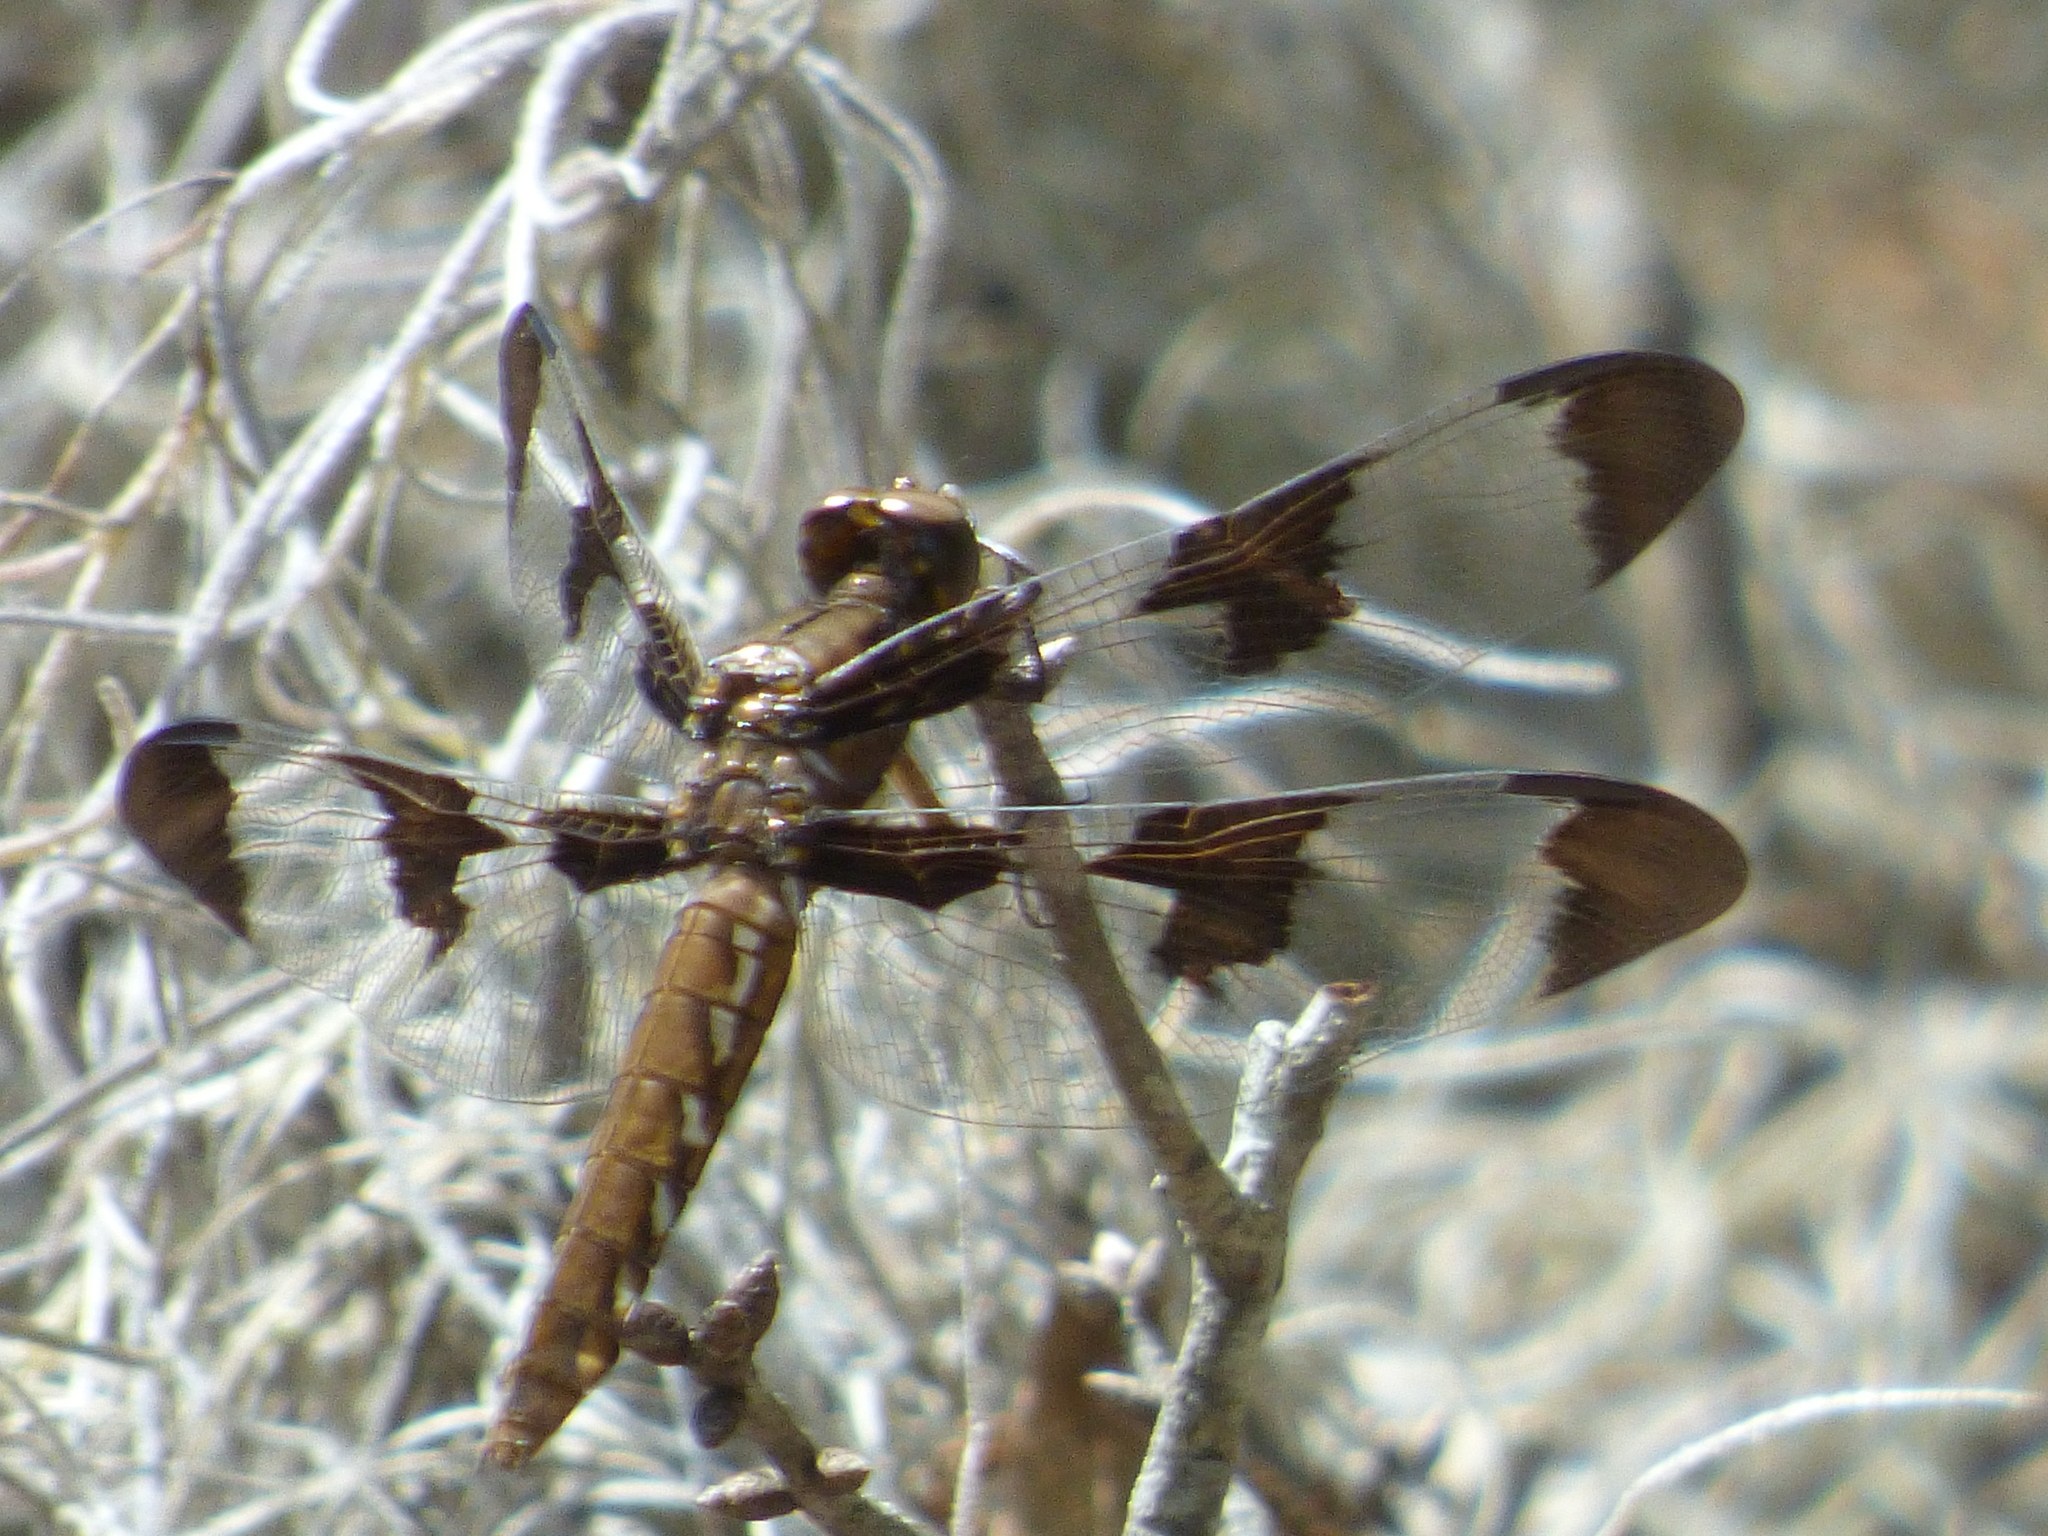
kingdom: Animalia
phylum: Arthropoda
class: Insecta
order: Odonata
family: Libellulidae
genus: Plathemis
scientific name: Plathemis lydia
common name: Common whitetail
